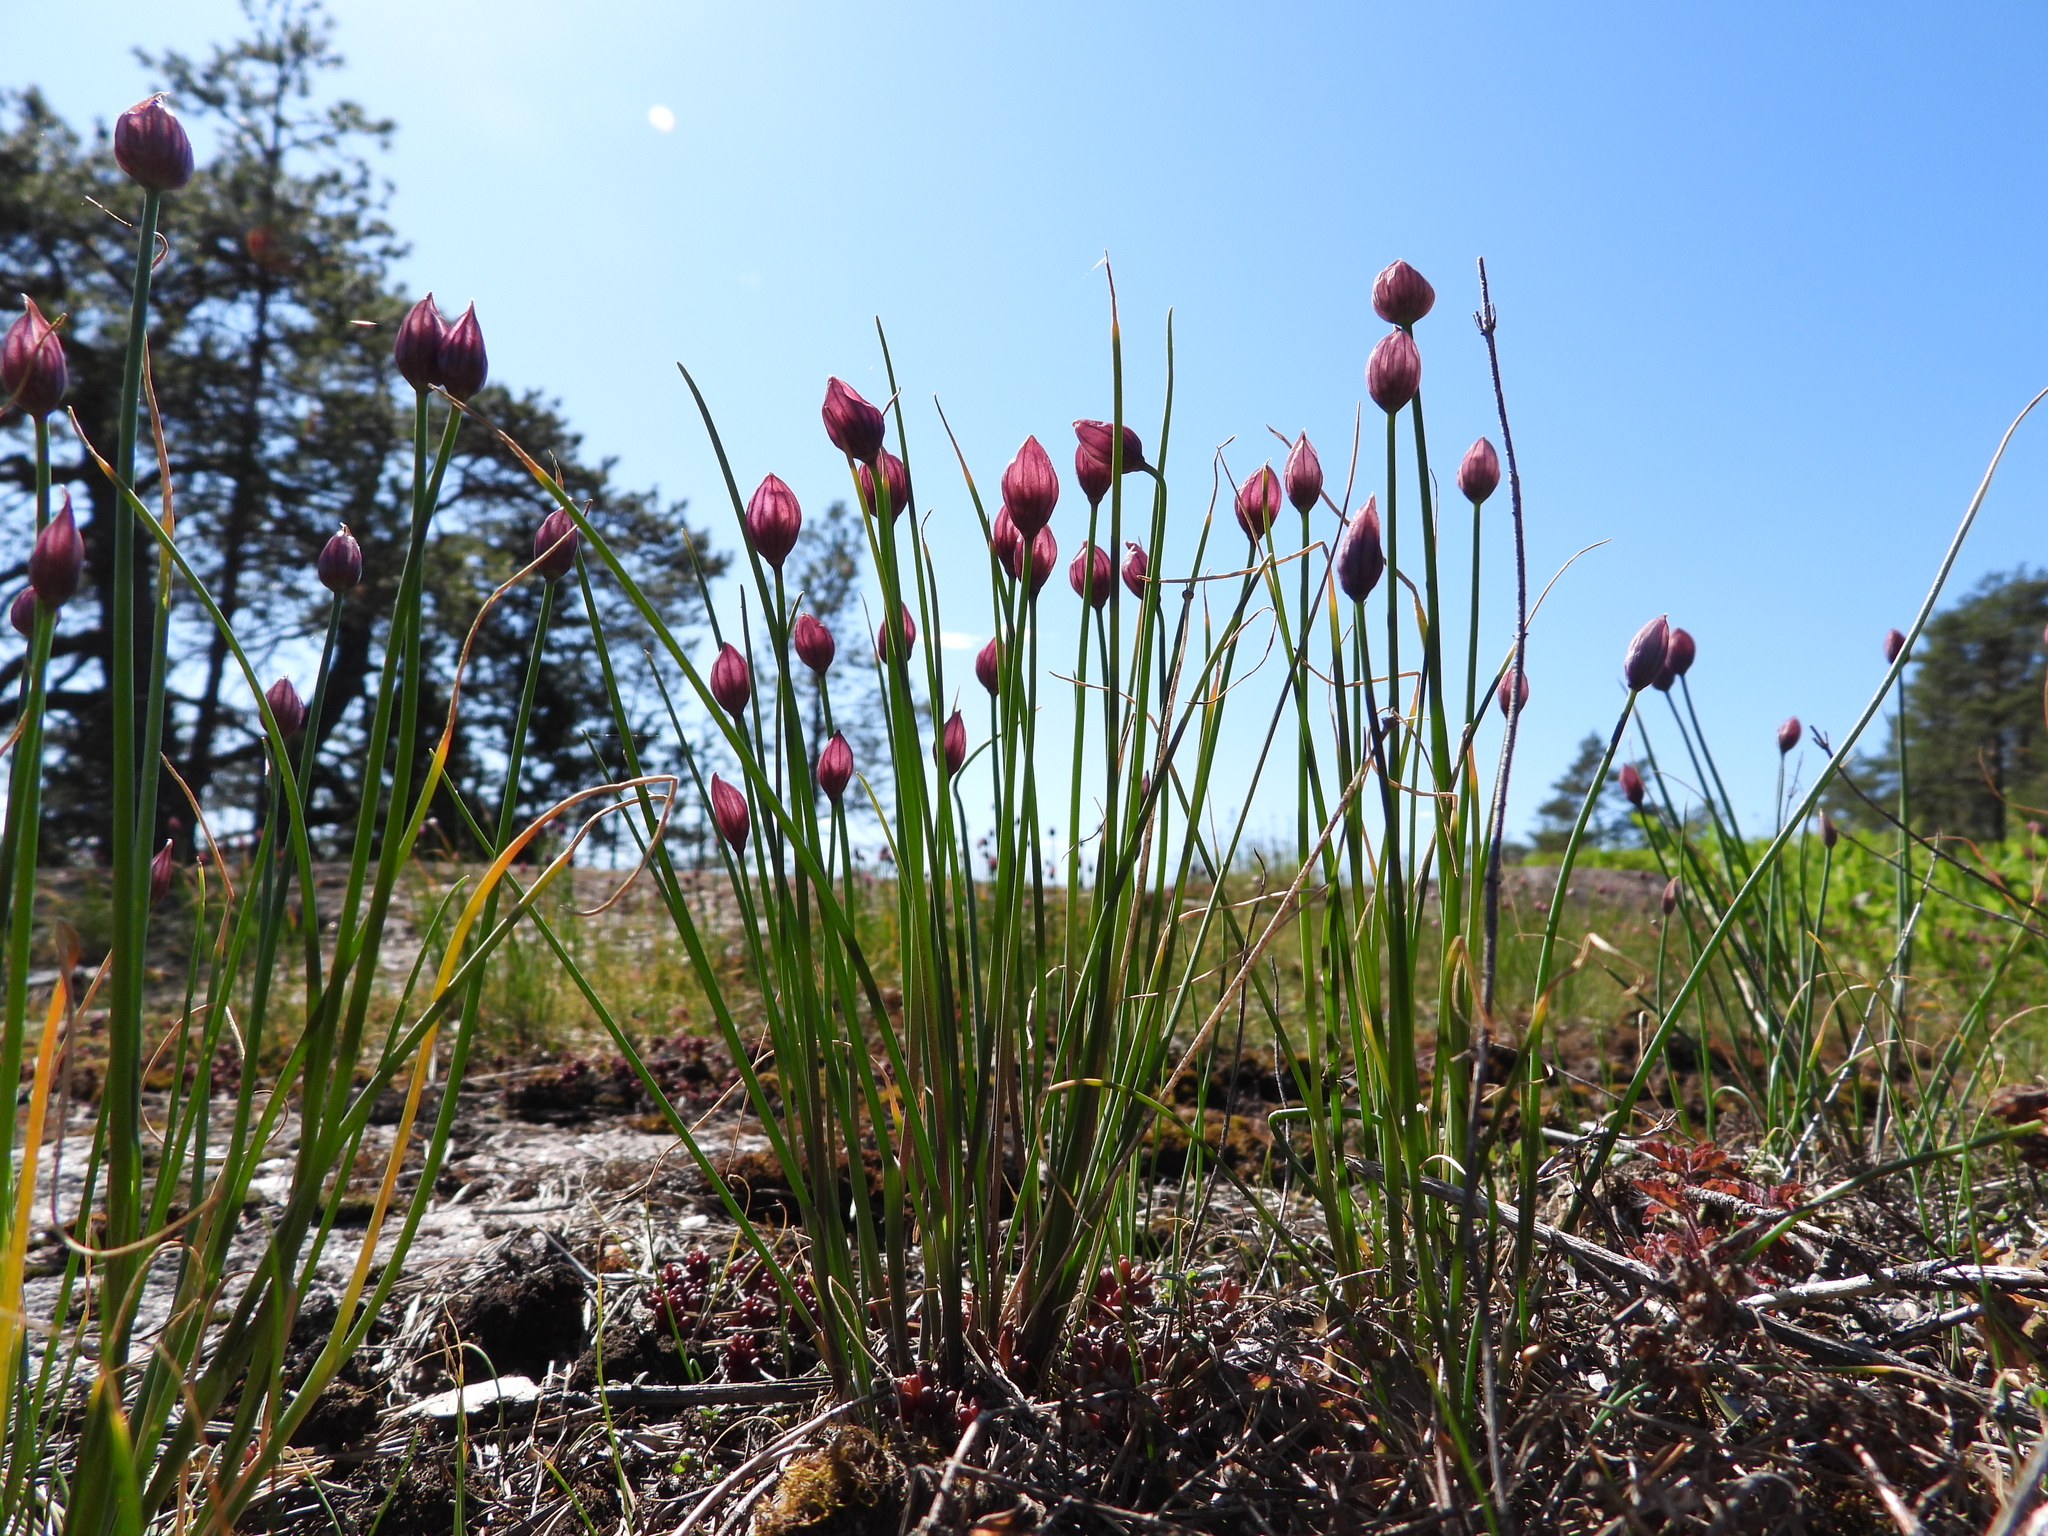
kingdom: Plantae
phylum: Tracheophyta
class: Liliopsida
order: Asparagales
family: Amaryllidaceae
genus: Allium
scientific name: Allium schoenoprasum
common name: Chives
